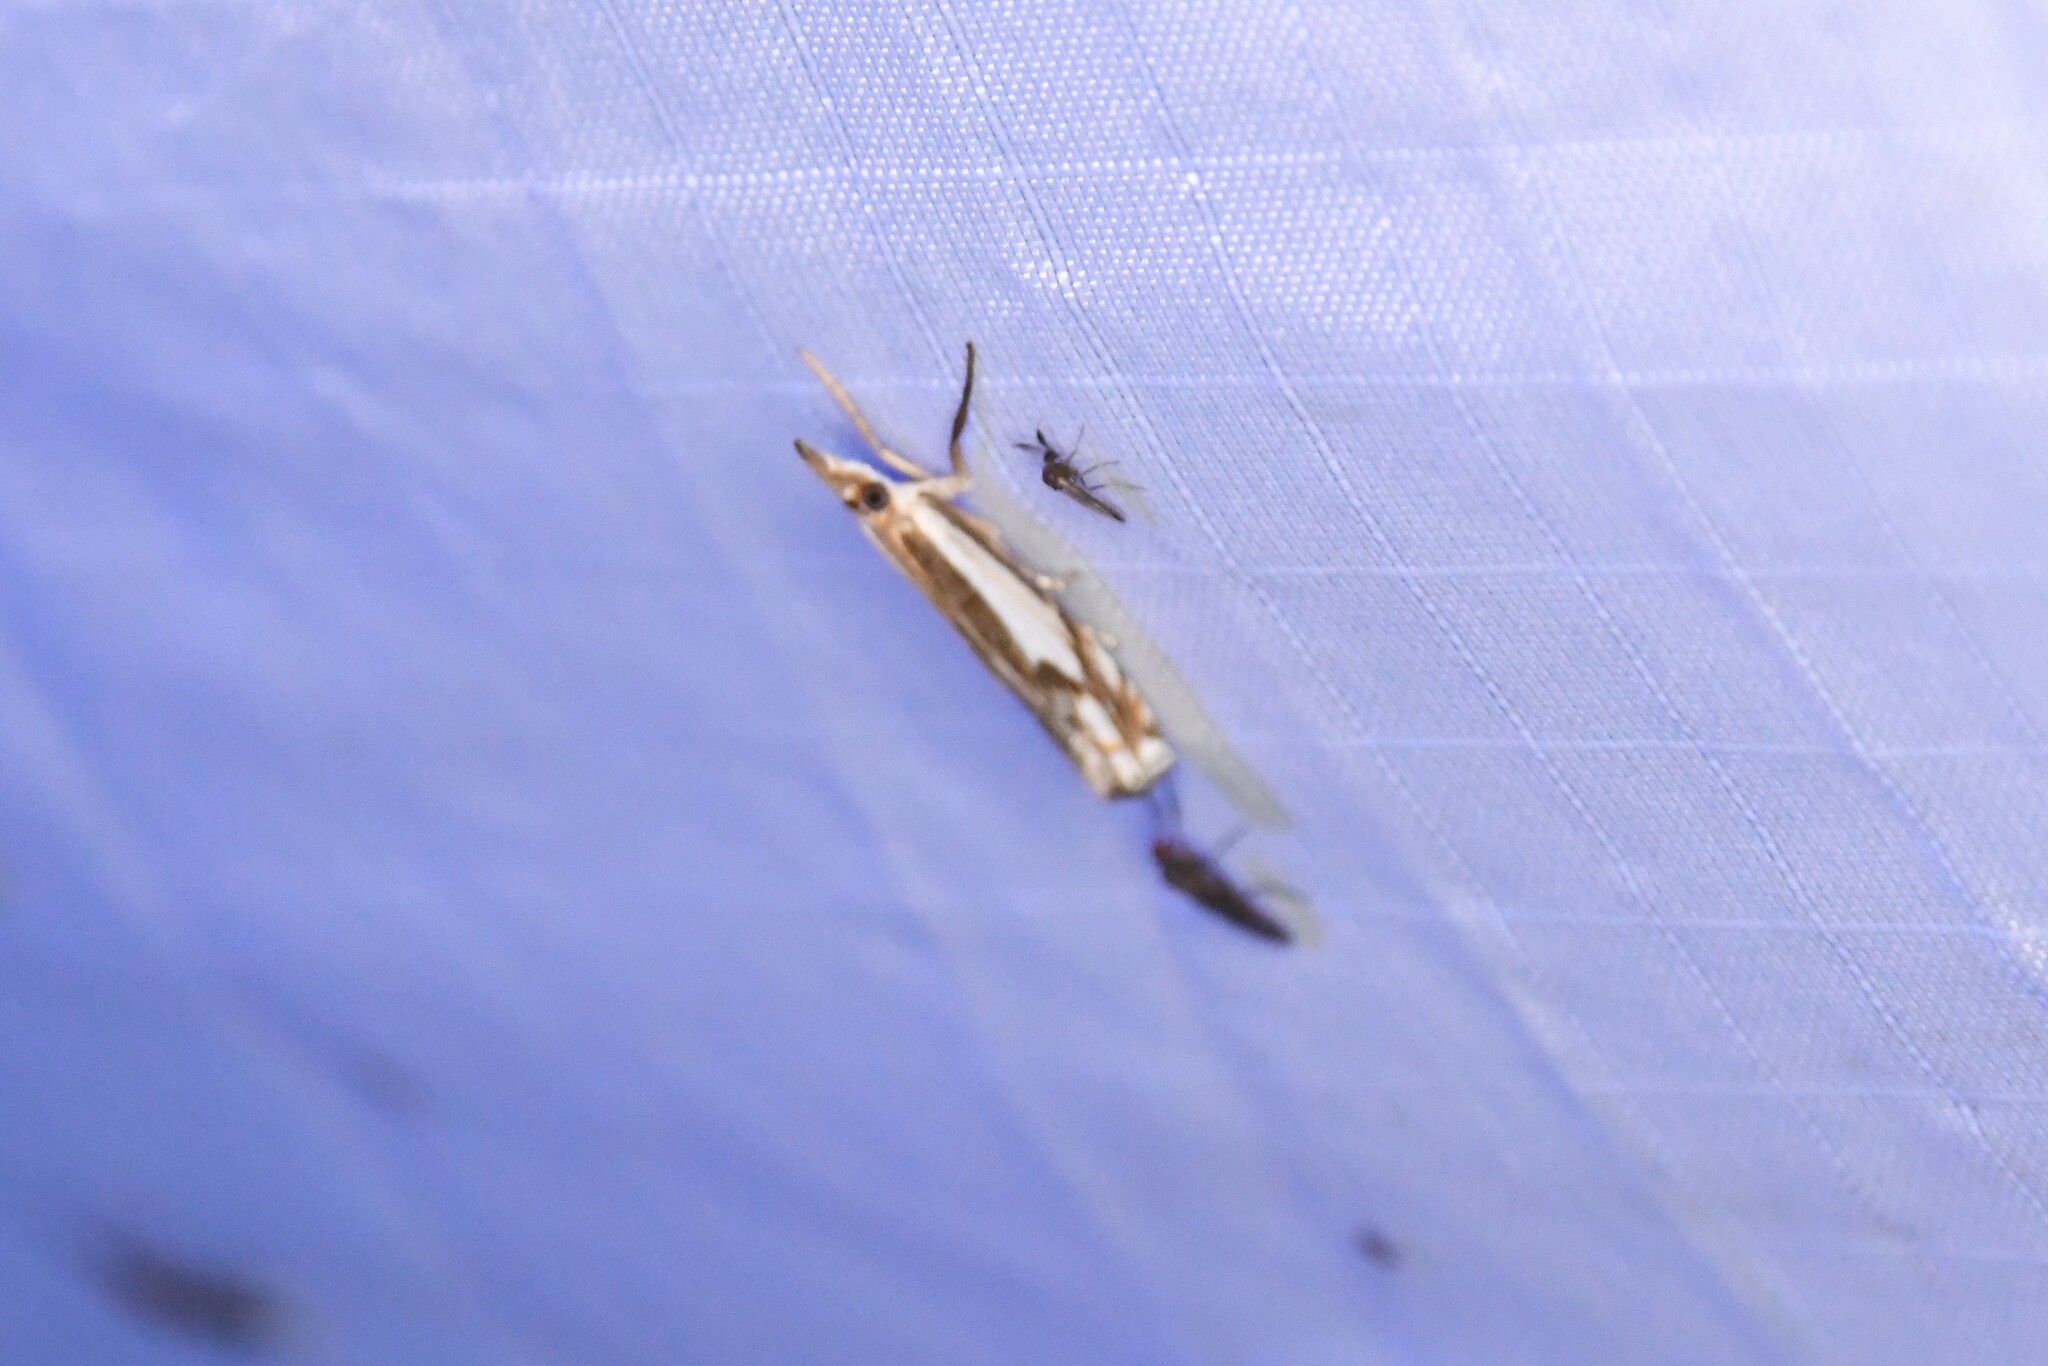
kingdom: Animalia
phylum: Arthropoda
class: Insecta
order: Lepidoptera
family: Crambidae
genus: Crambus
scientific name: Crambus agitatellus
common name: Double-banded grass-veneer
